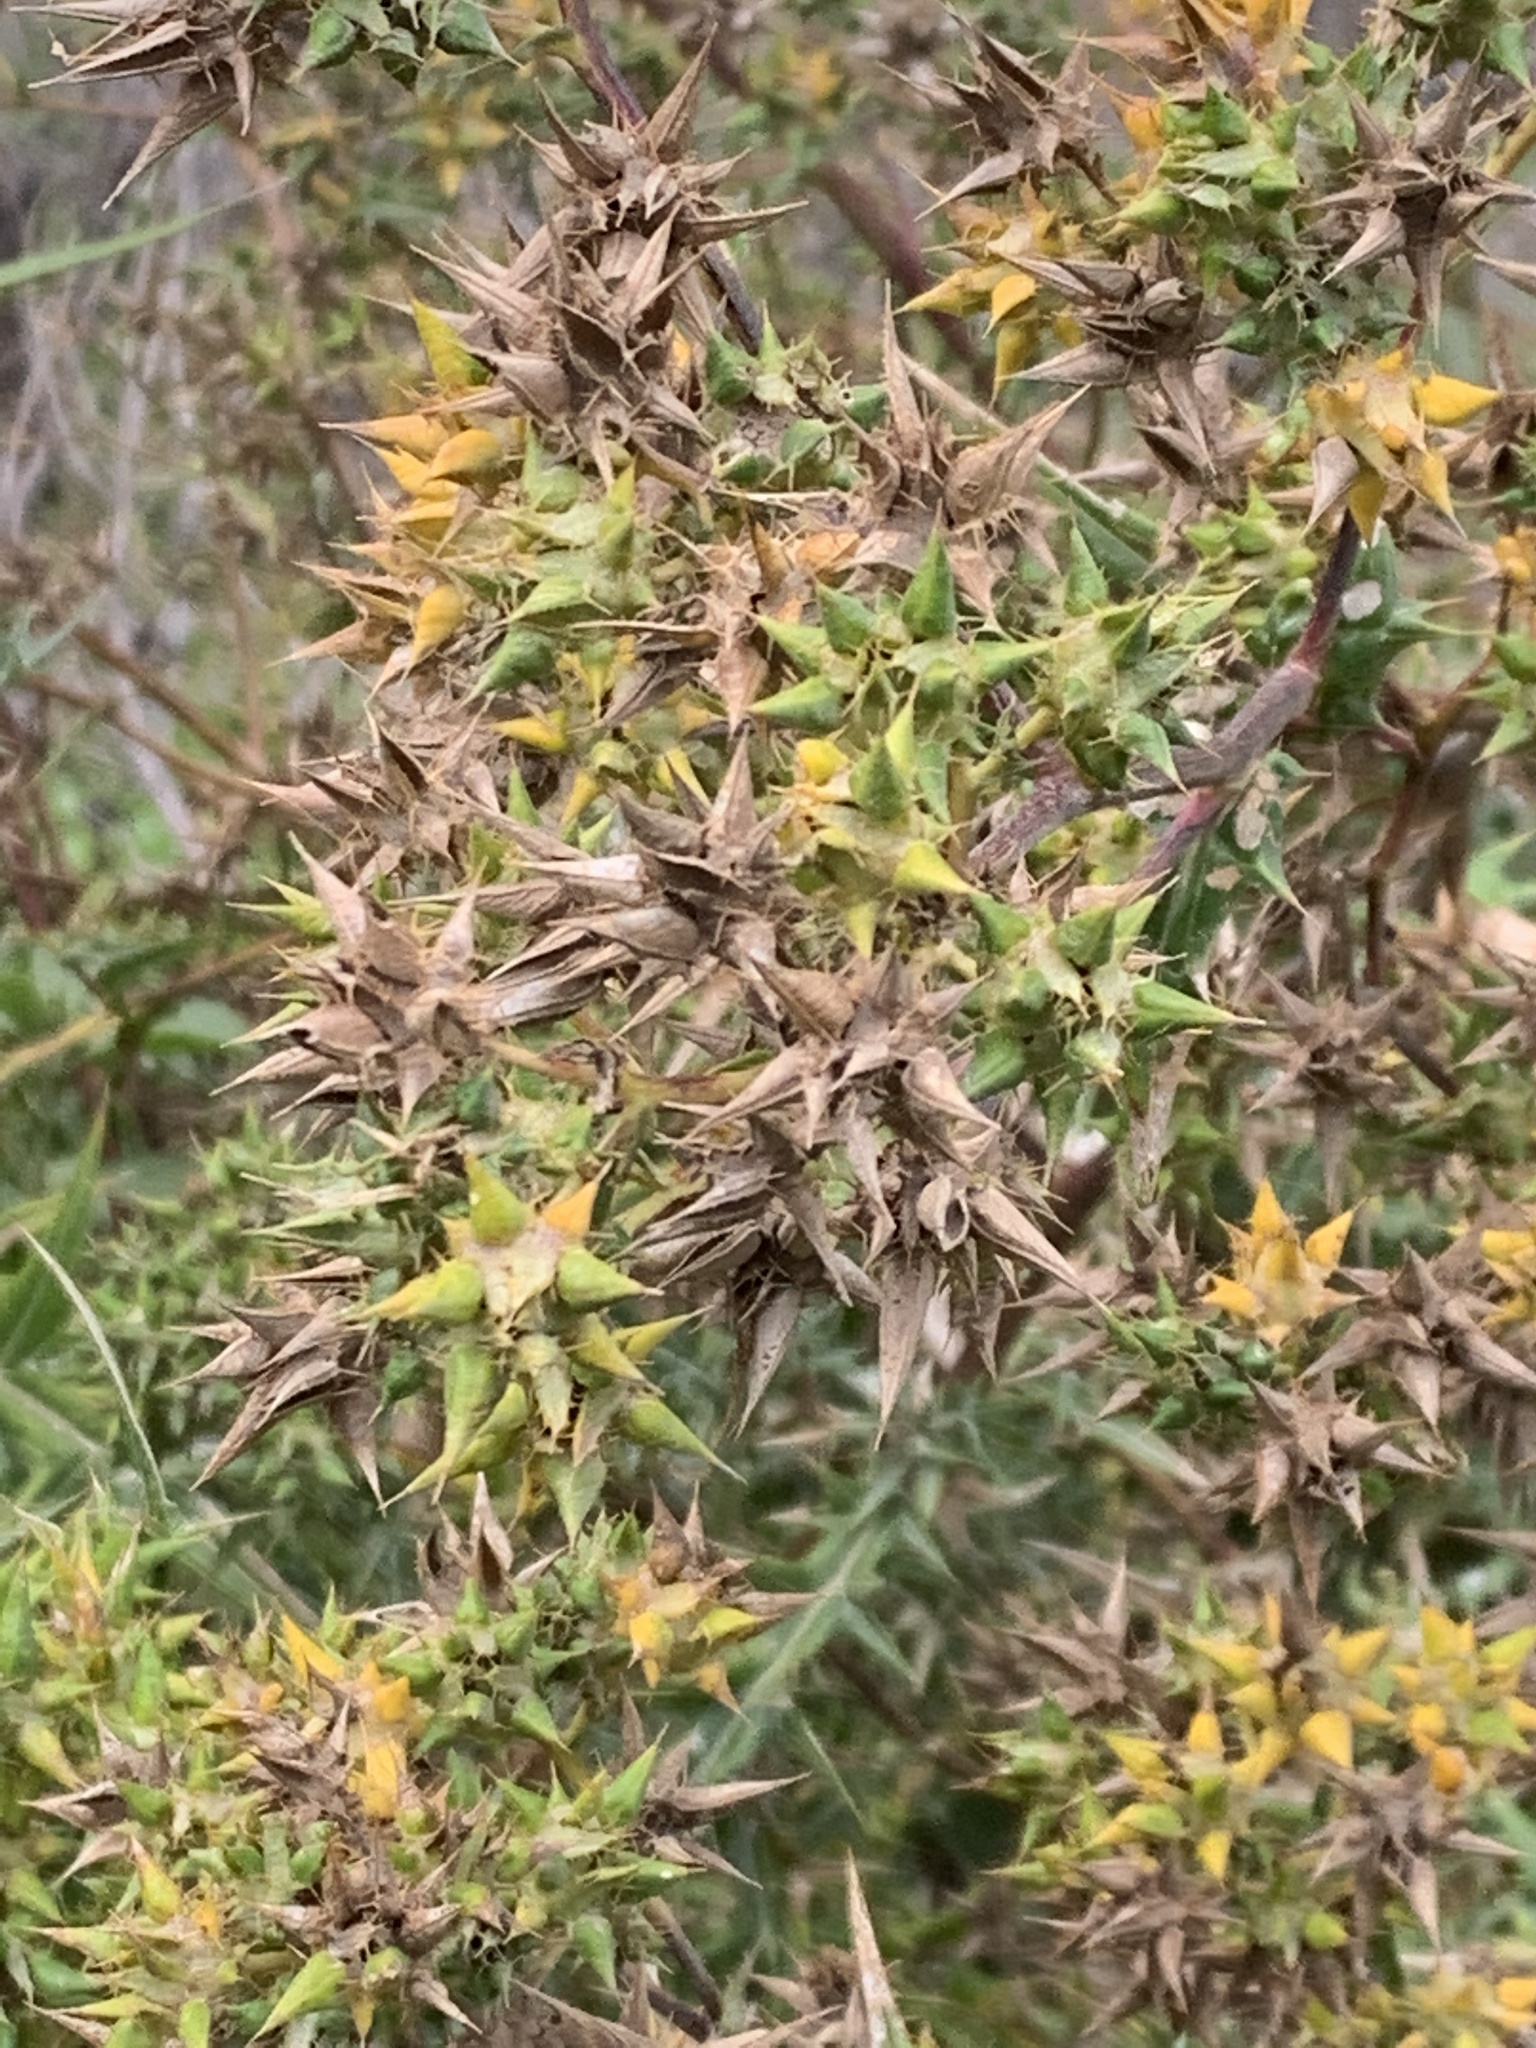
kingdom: Plantae
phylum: Tracheophyta
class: Magnoliopsida
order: Asterales
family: Asteraceae
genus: Berkheya
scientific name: Berkheya rigida
